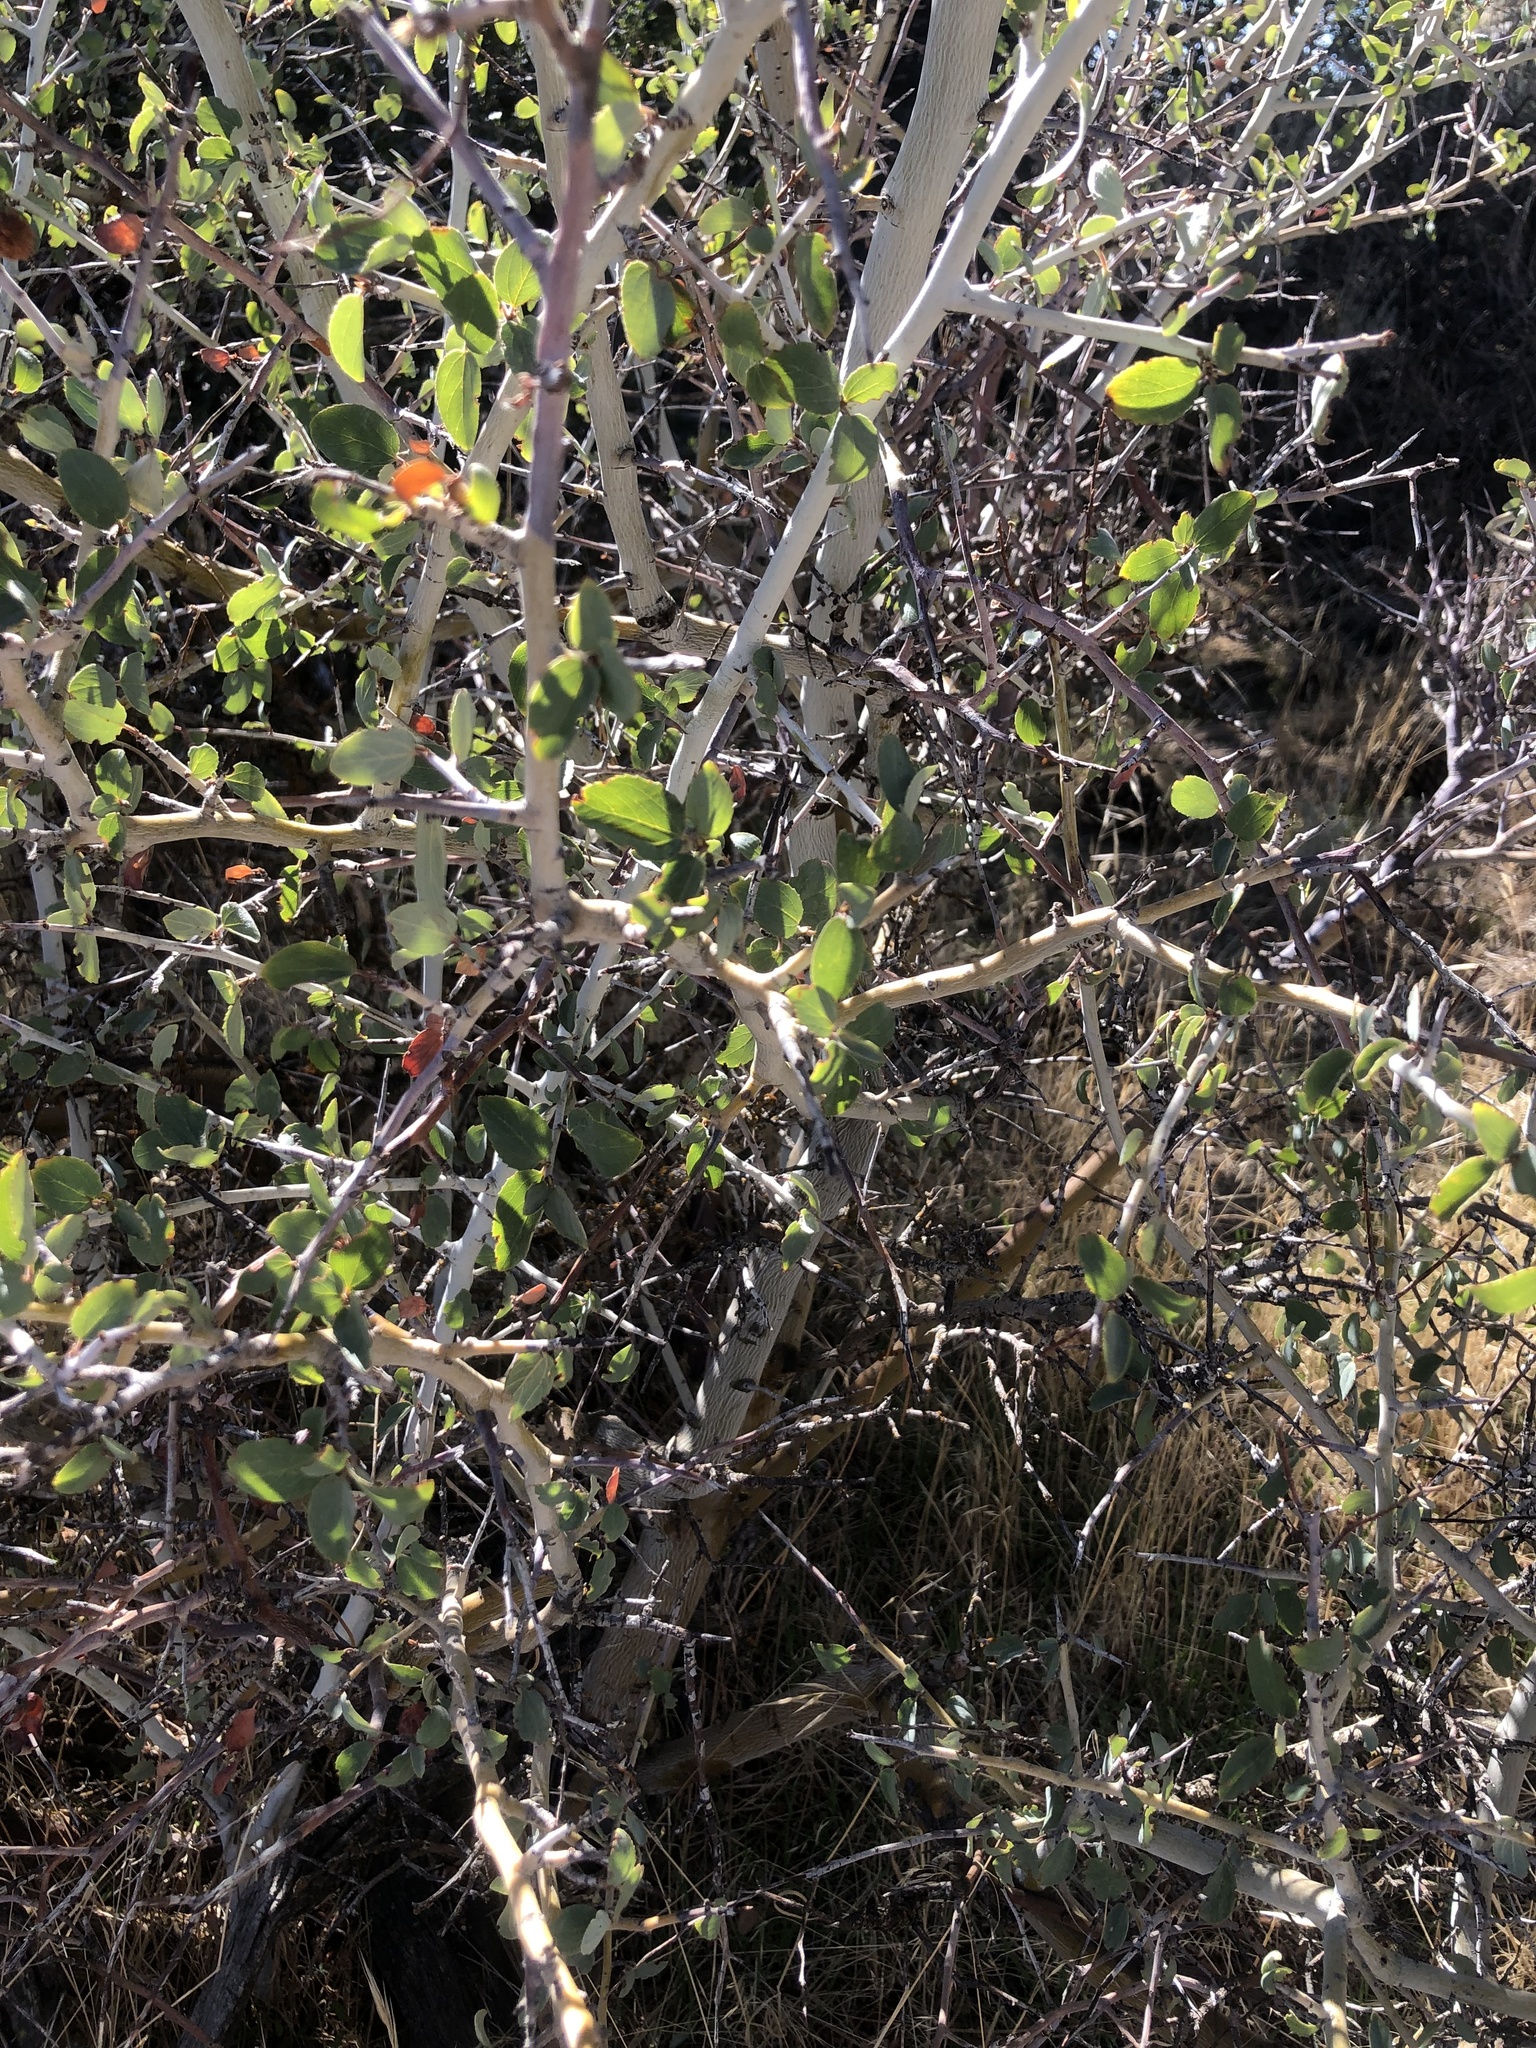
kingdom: Plantae
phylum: Tracheophyta
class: Magnoliopsida
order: Rosales
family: Rhamnaceae
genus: Ceanothus
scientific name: Ceanothus leucodermis
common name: Chaparral whitethorn
